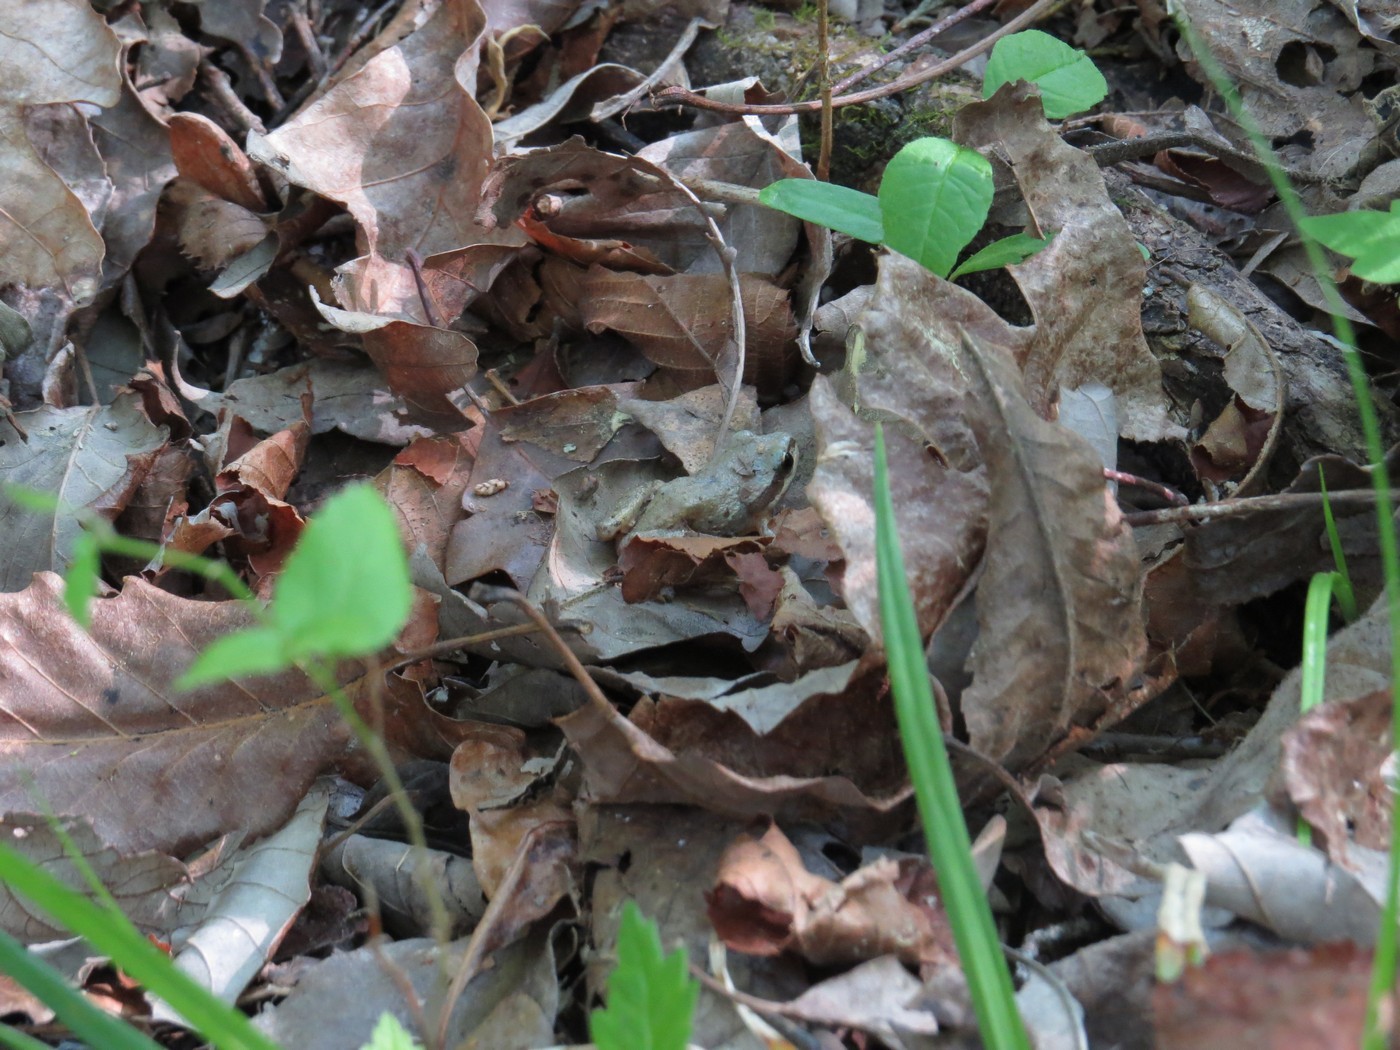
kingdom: Animalia
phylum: Chordata
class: Amphibia
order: Anura
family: Hylidae
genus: Pseudacris
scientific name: Pseudacris feriarum
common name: Upland chorus frog
